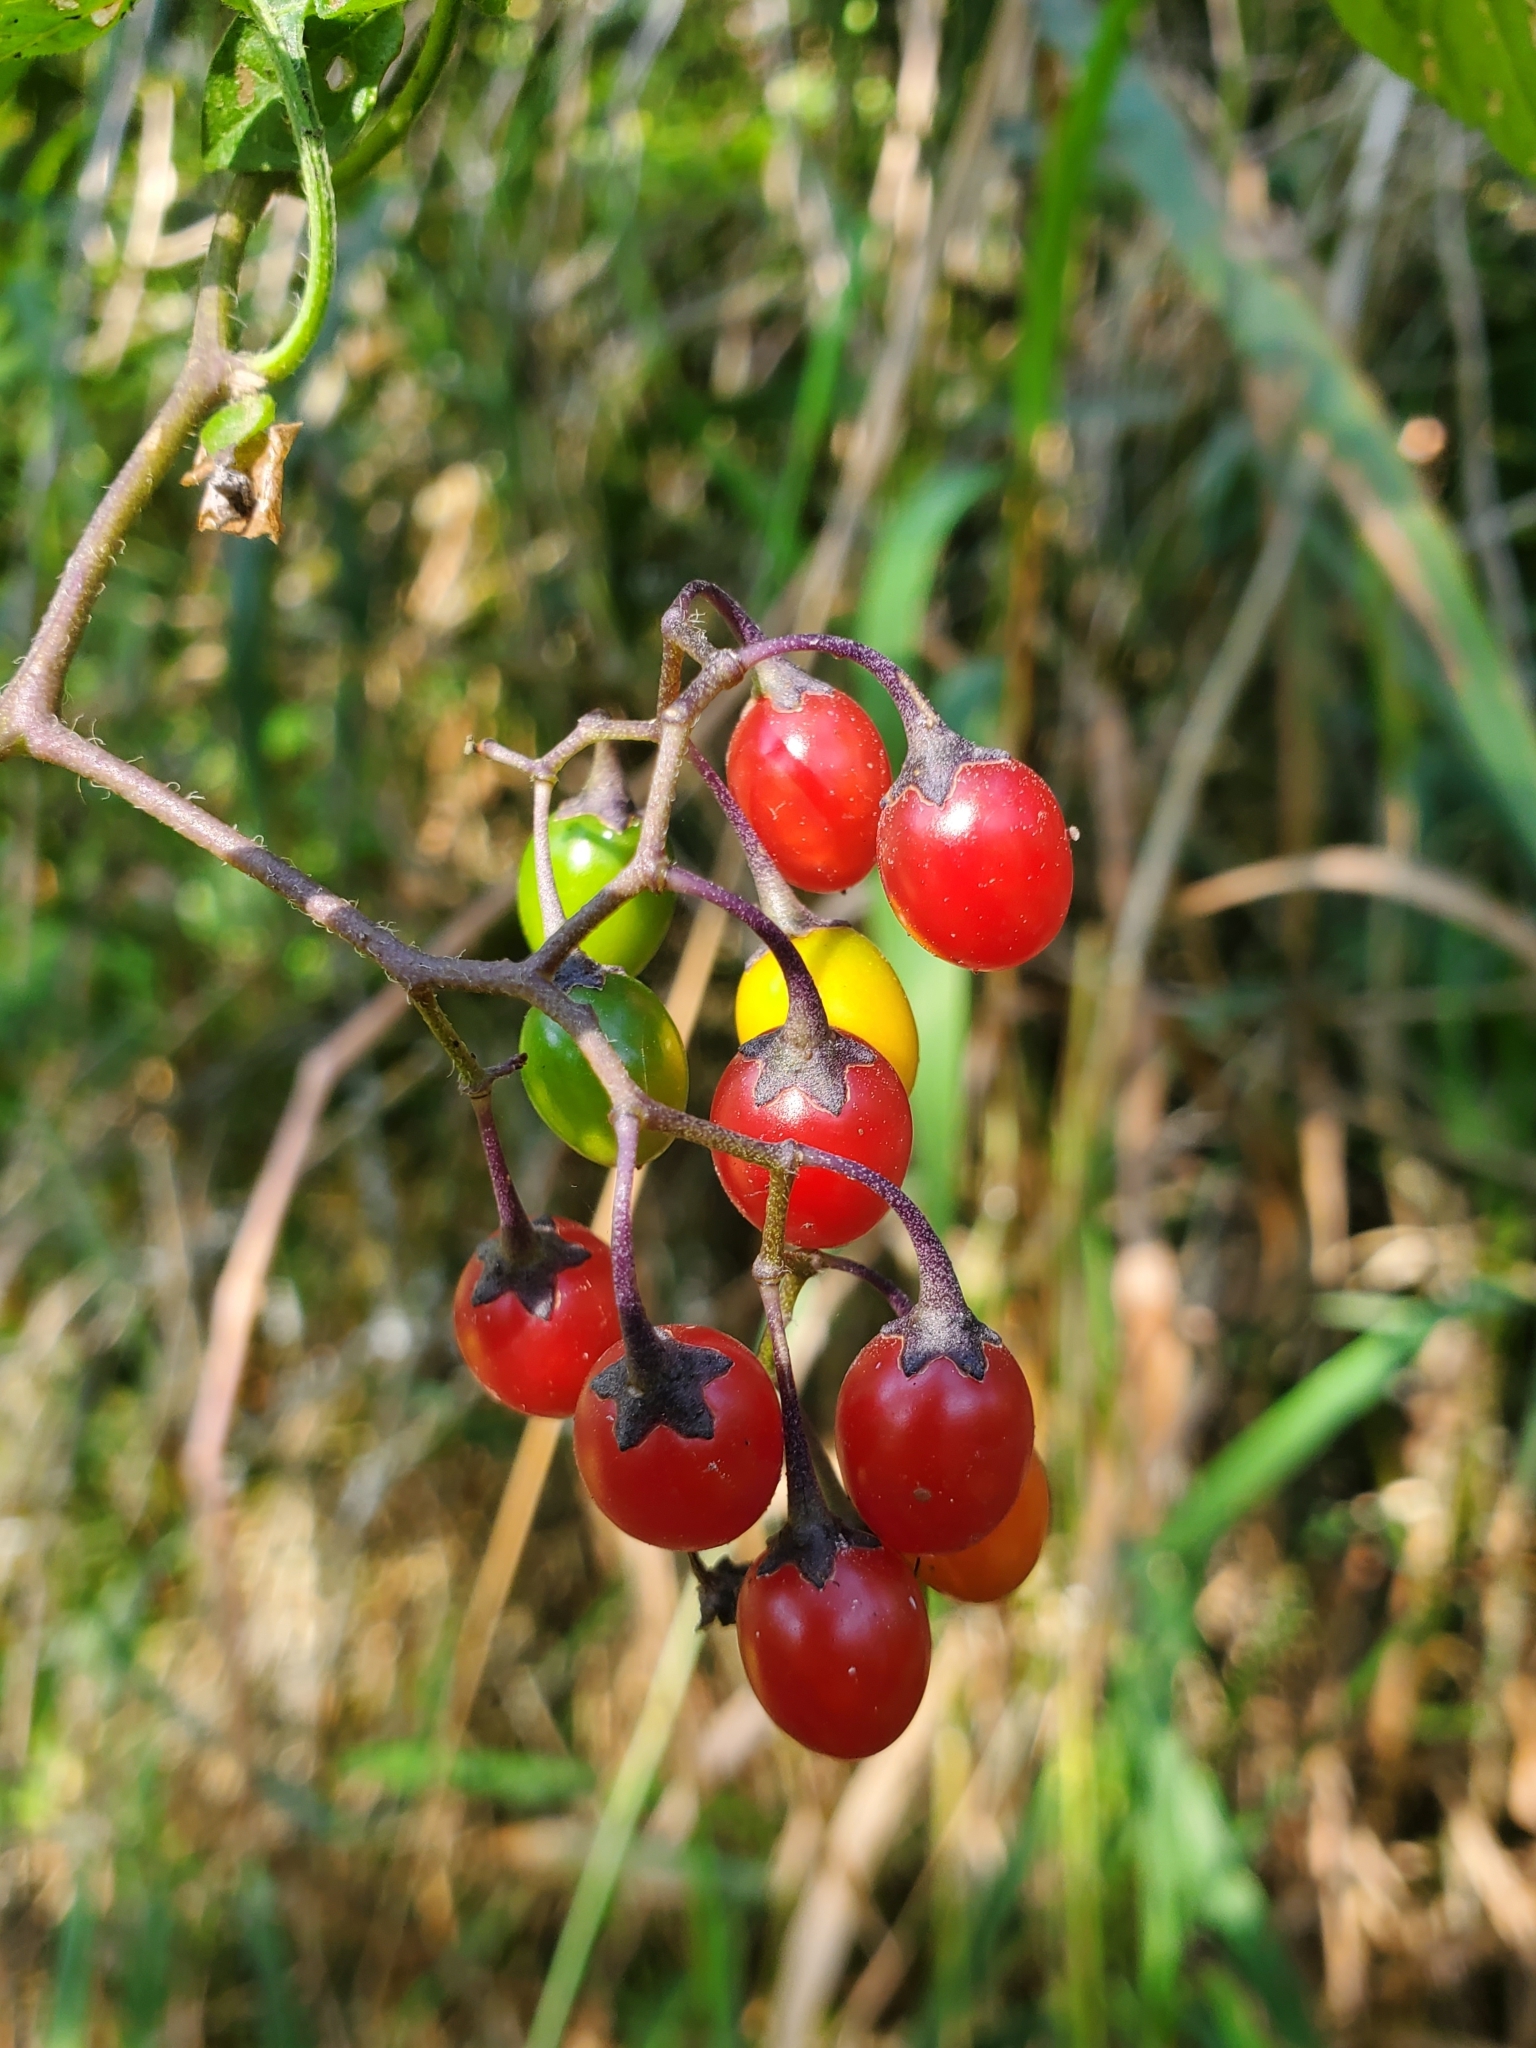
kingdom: Plantae
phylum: Tracheophyta
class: Magnoliopsida
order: Solanales
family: Solanaceae
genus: Solanum
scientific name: Solanum dulcamara
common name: Climbing nightshade
